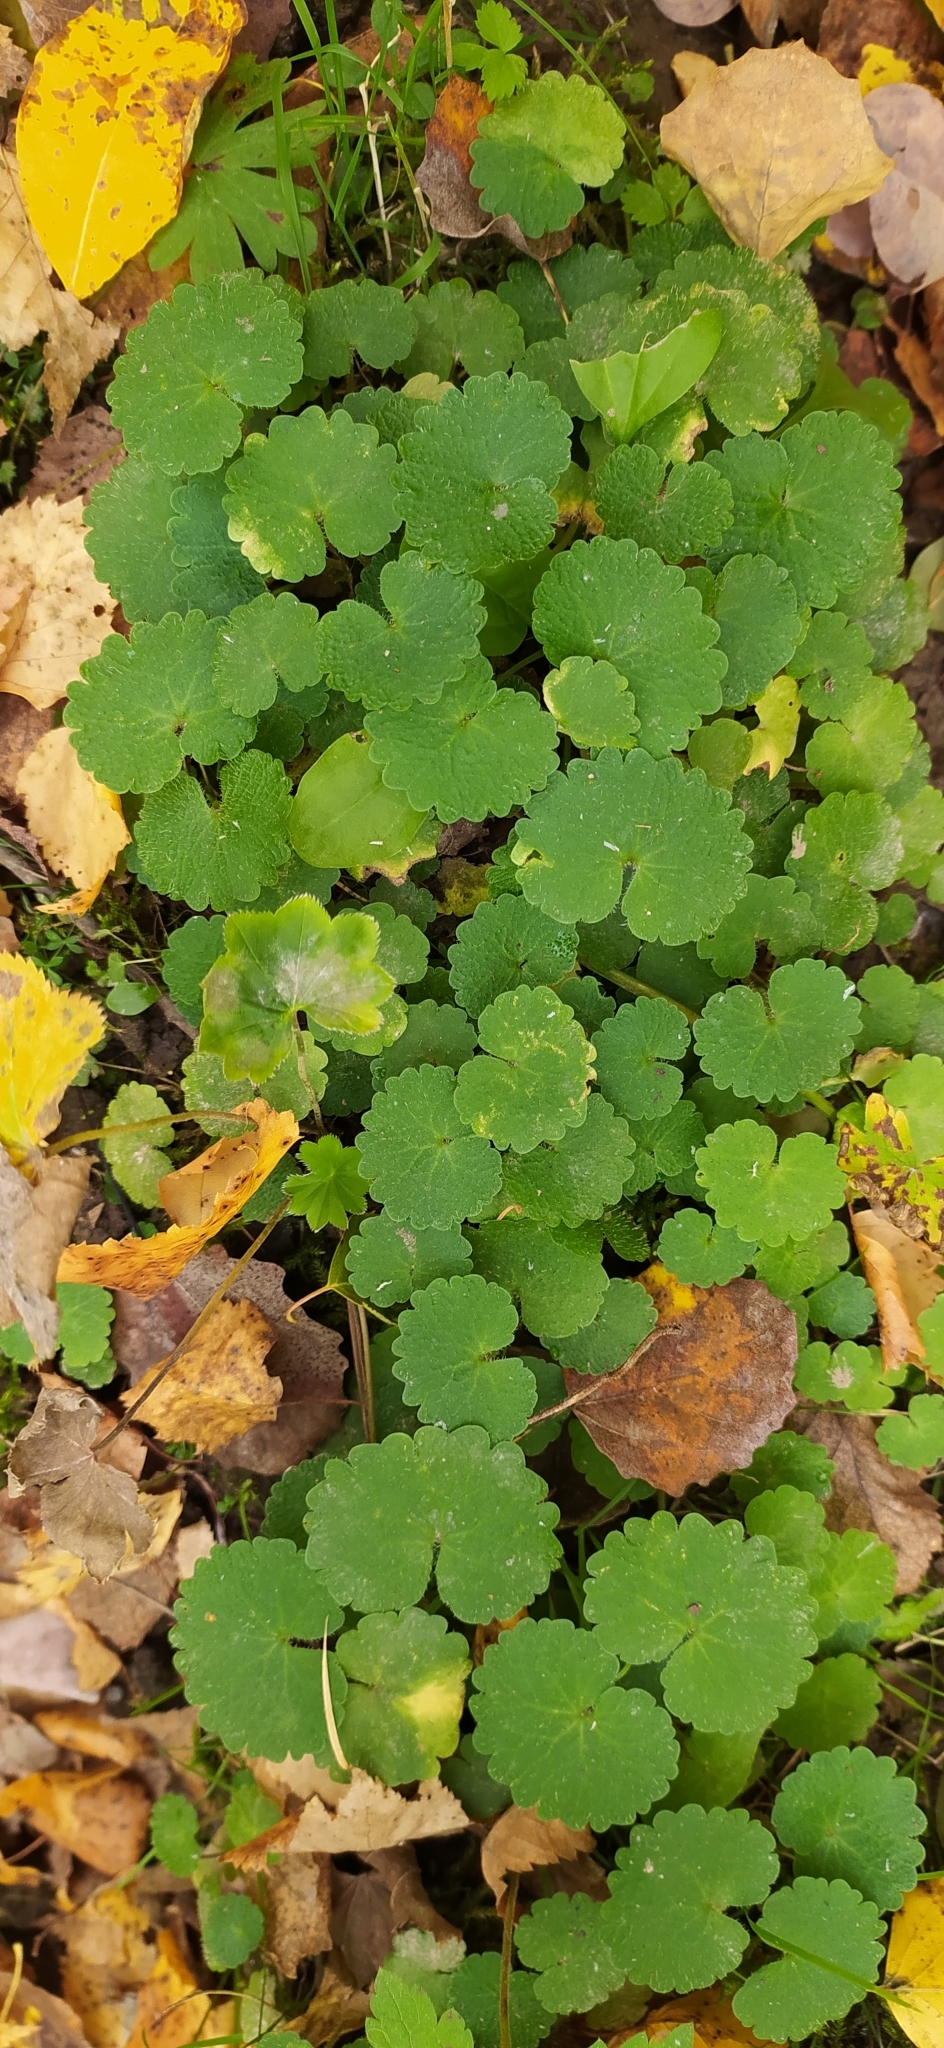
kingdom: Plantae
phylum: Tracheophyta
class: Magnoliopsida
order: Saxifragales
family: Saxifragaceae
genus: Chrysosplenium
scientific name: Chrysosplenium alternifolium
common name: Alternate-leaved golden-saxifrage
